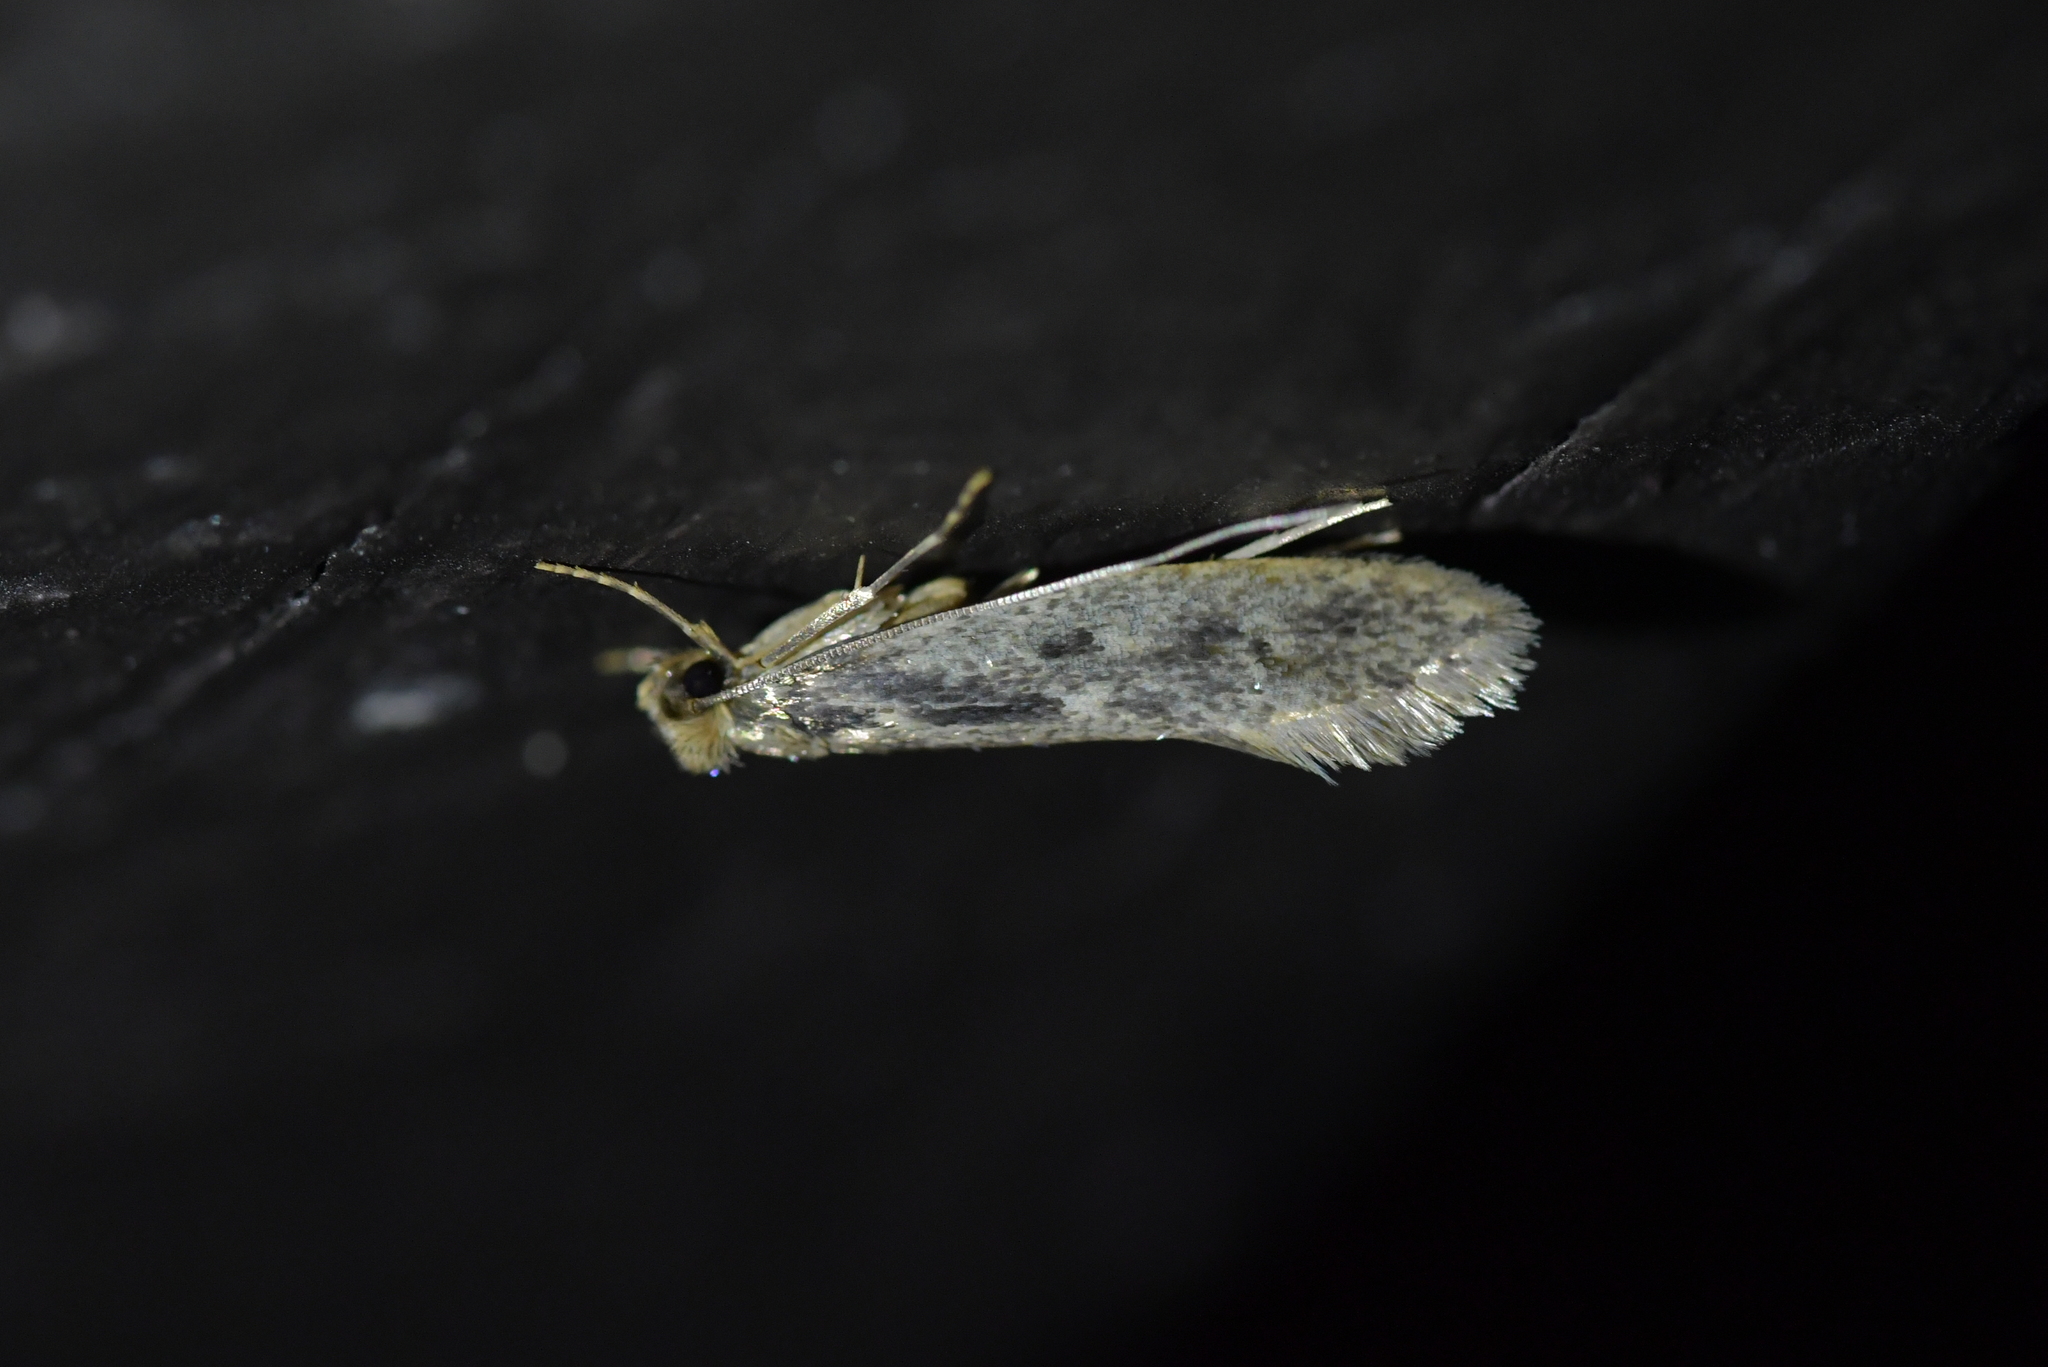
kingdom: Animalia
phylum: Arthropoda
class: Insecta
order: Lepidoptera
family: Tineidae
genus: Tinea
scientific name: Tinea pallescentella
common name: Large pale clothes moth
